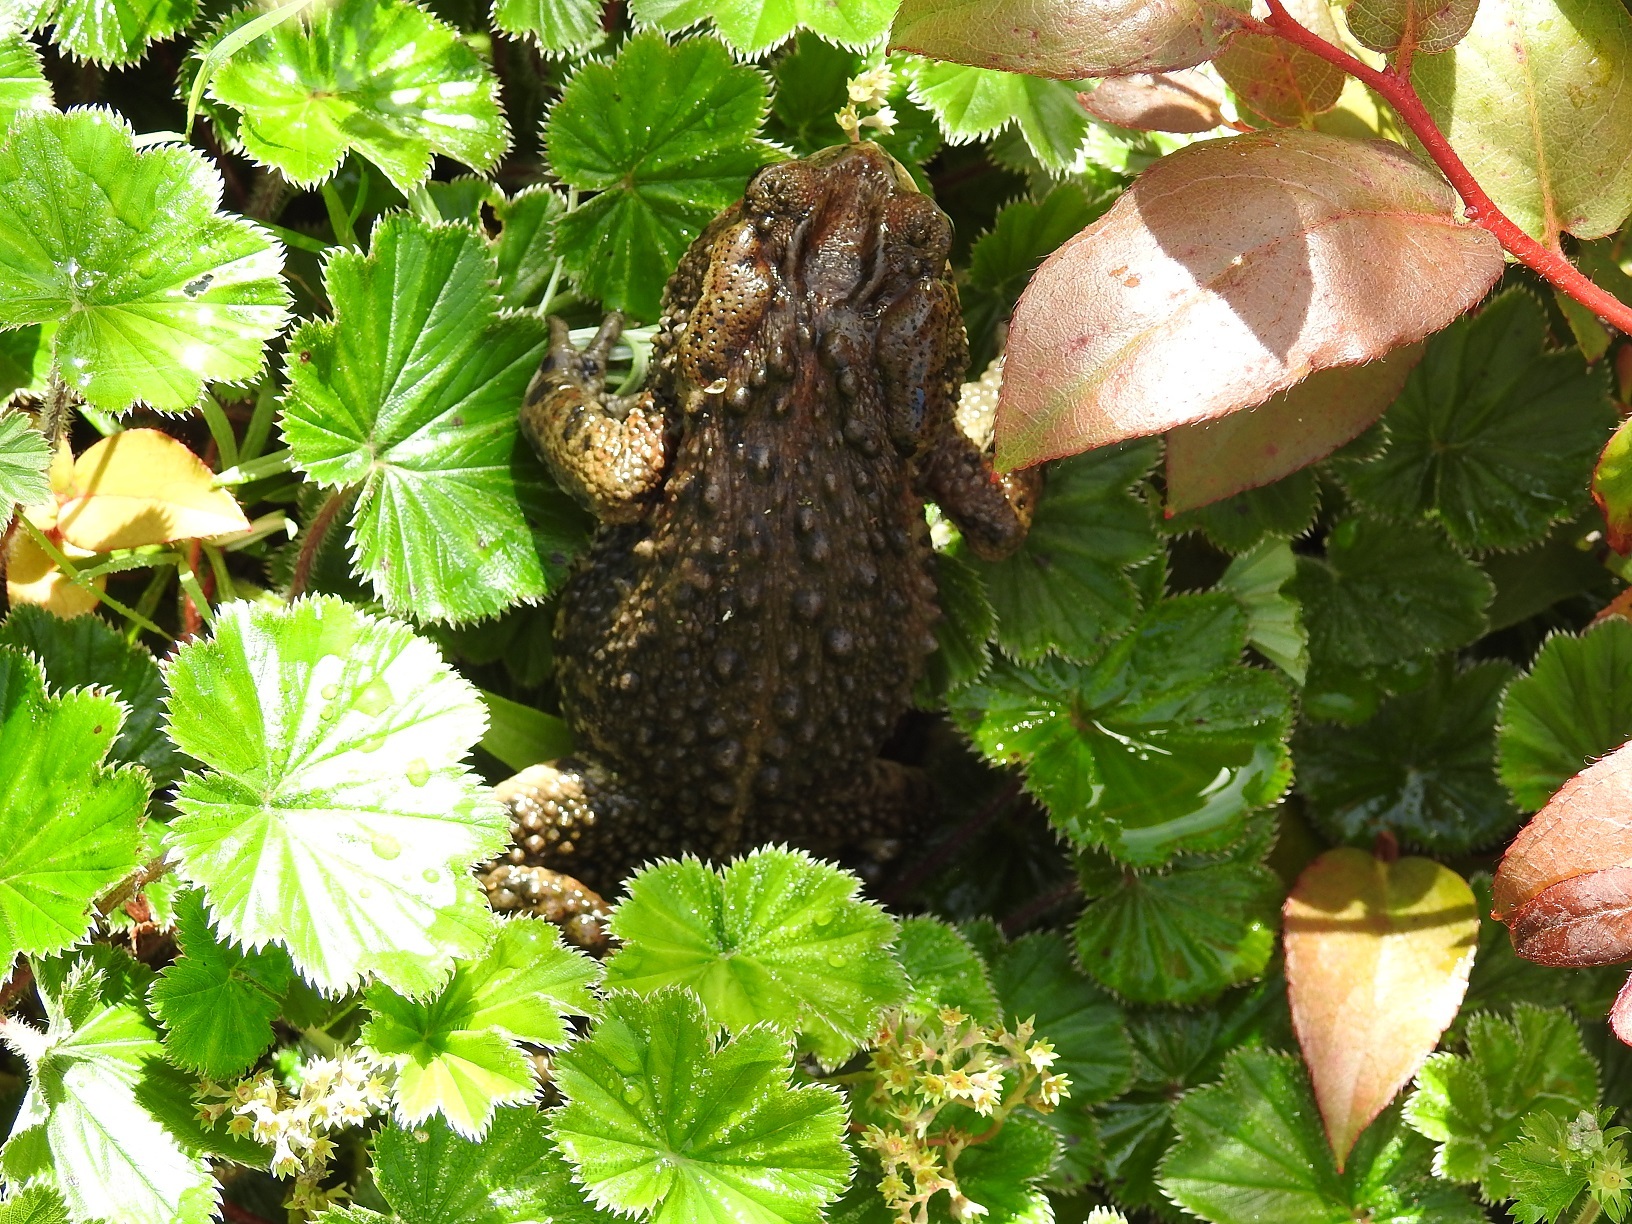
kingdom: Animalia
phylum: Chordata
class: Amphibia
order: Anura
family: Bufonidae
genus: Incilius
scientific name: Incilius bocourti
